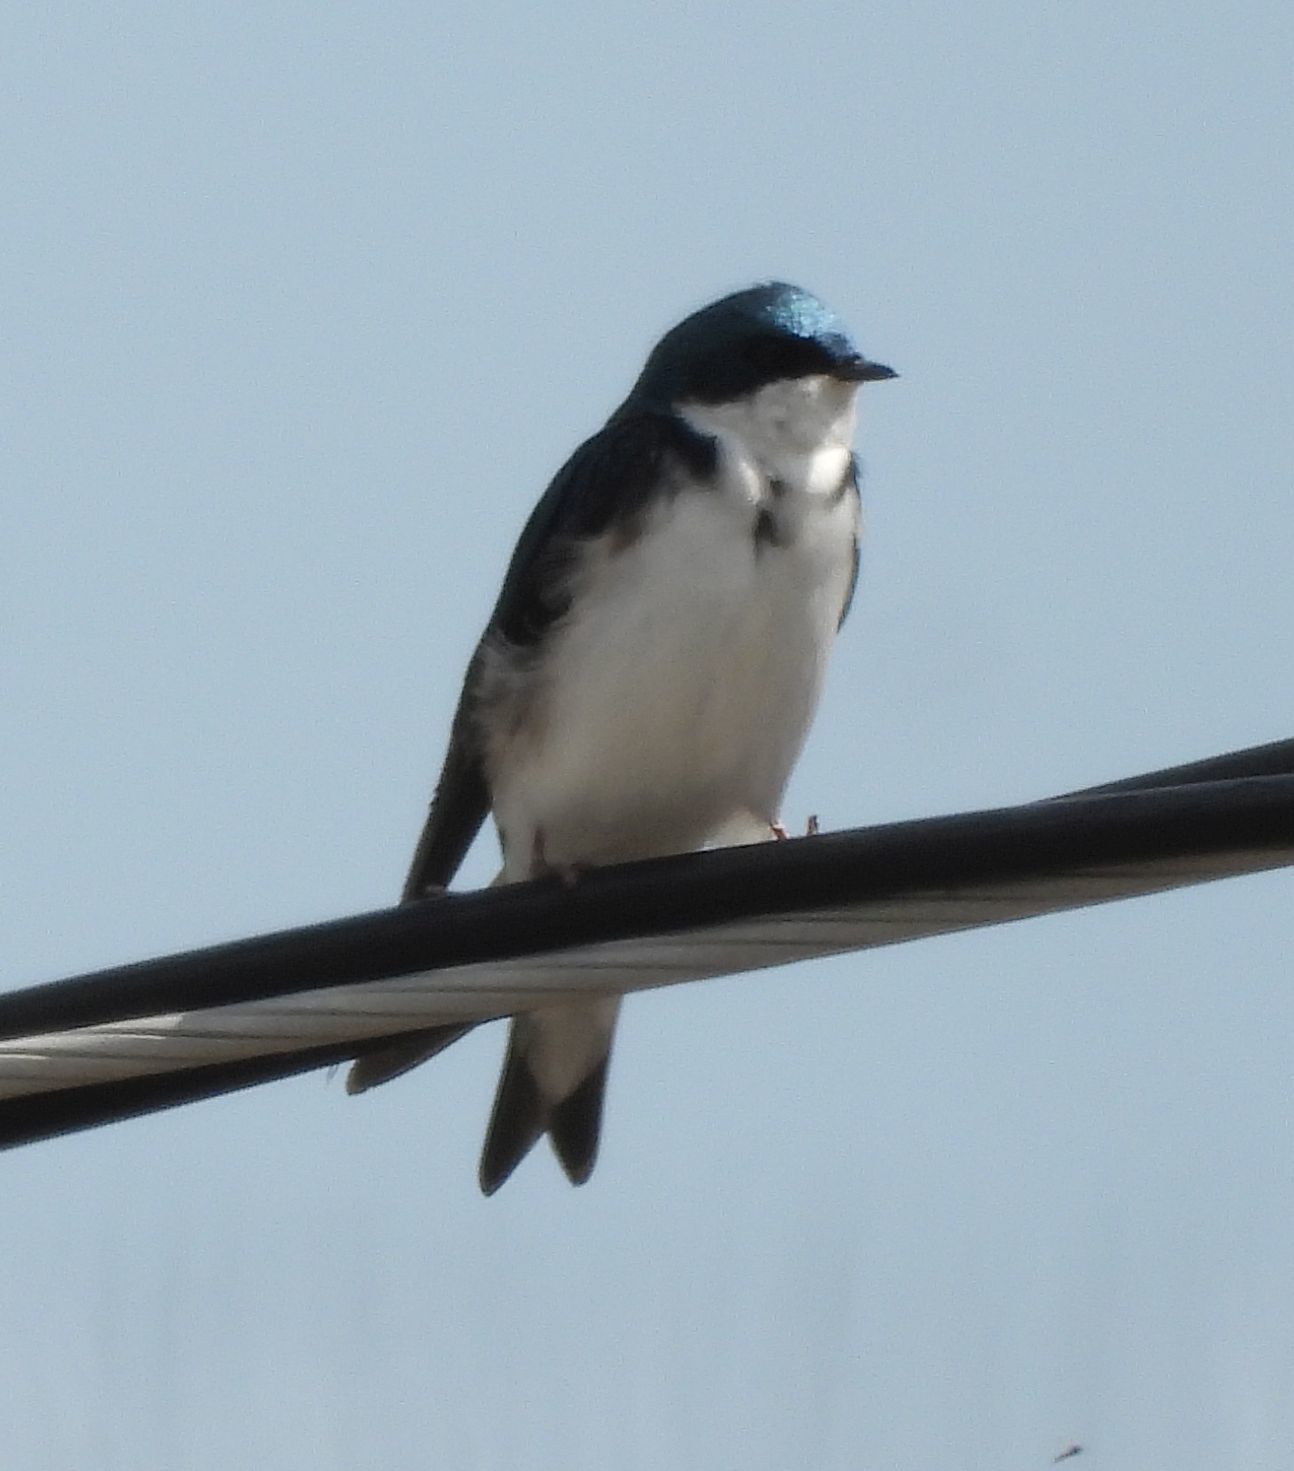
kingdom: Animalia
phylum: Chordata
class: Aves
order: Passeriformes
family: Hirundinidae
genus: Tachycineta
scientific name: Tachycineta bicolor
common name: Tree swallow
